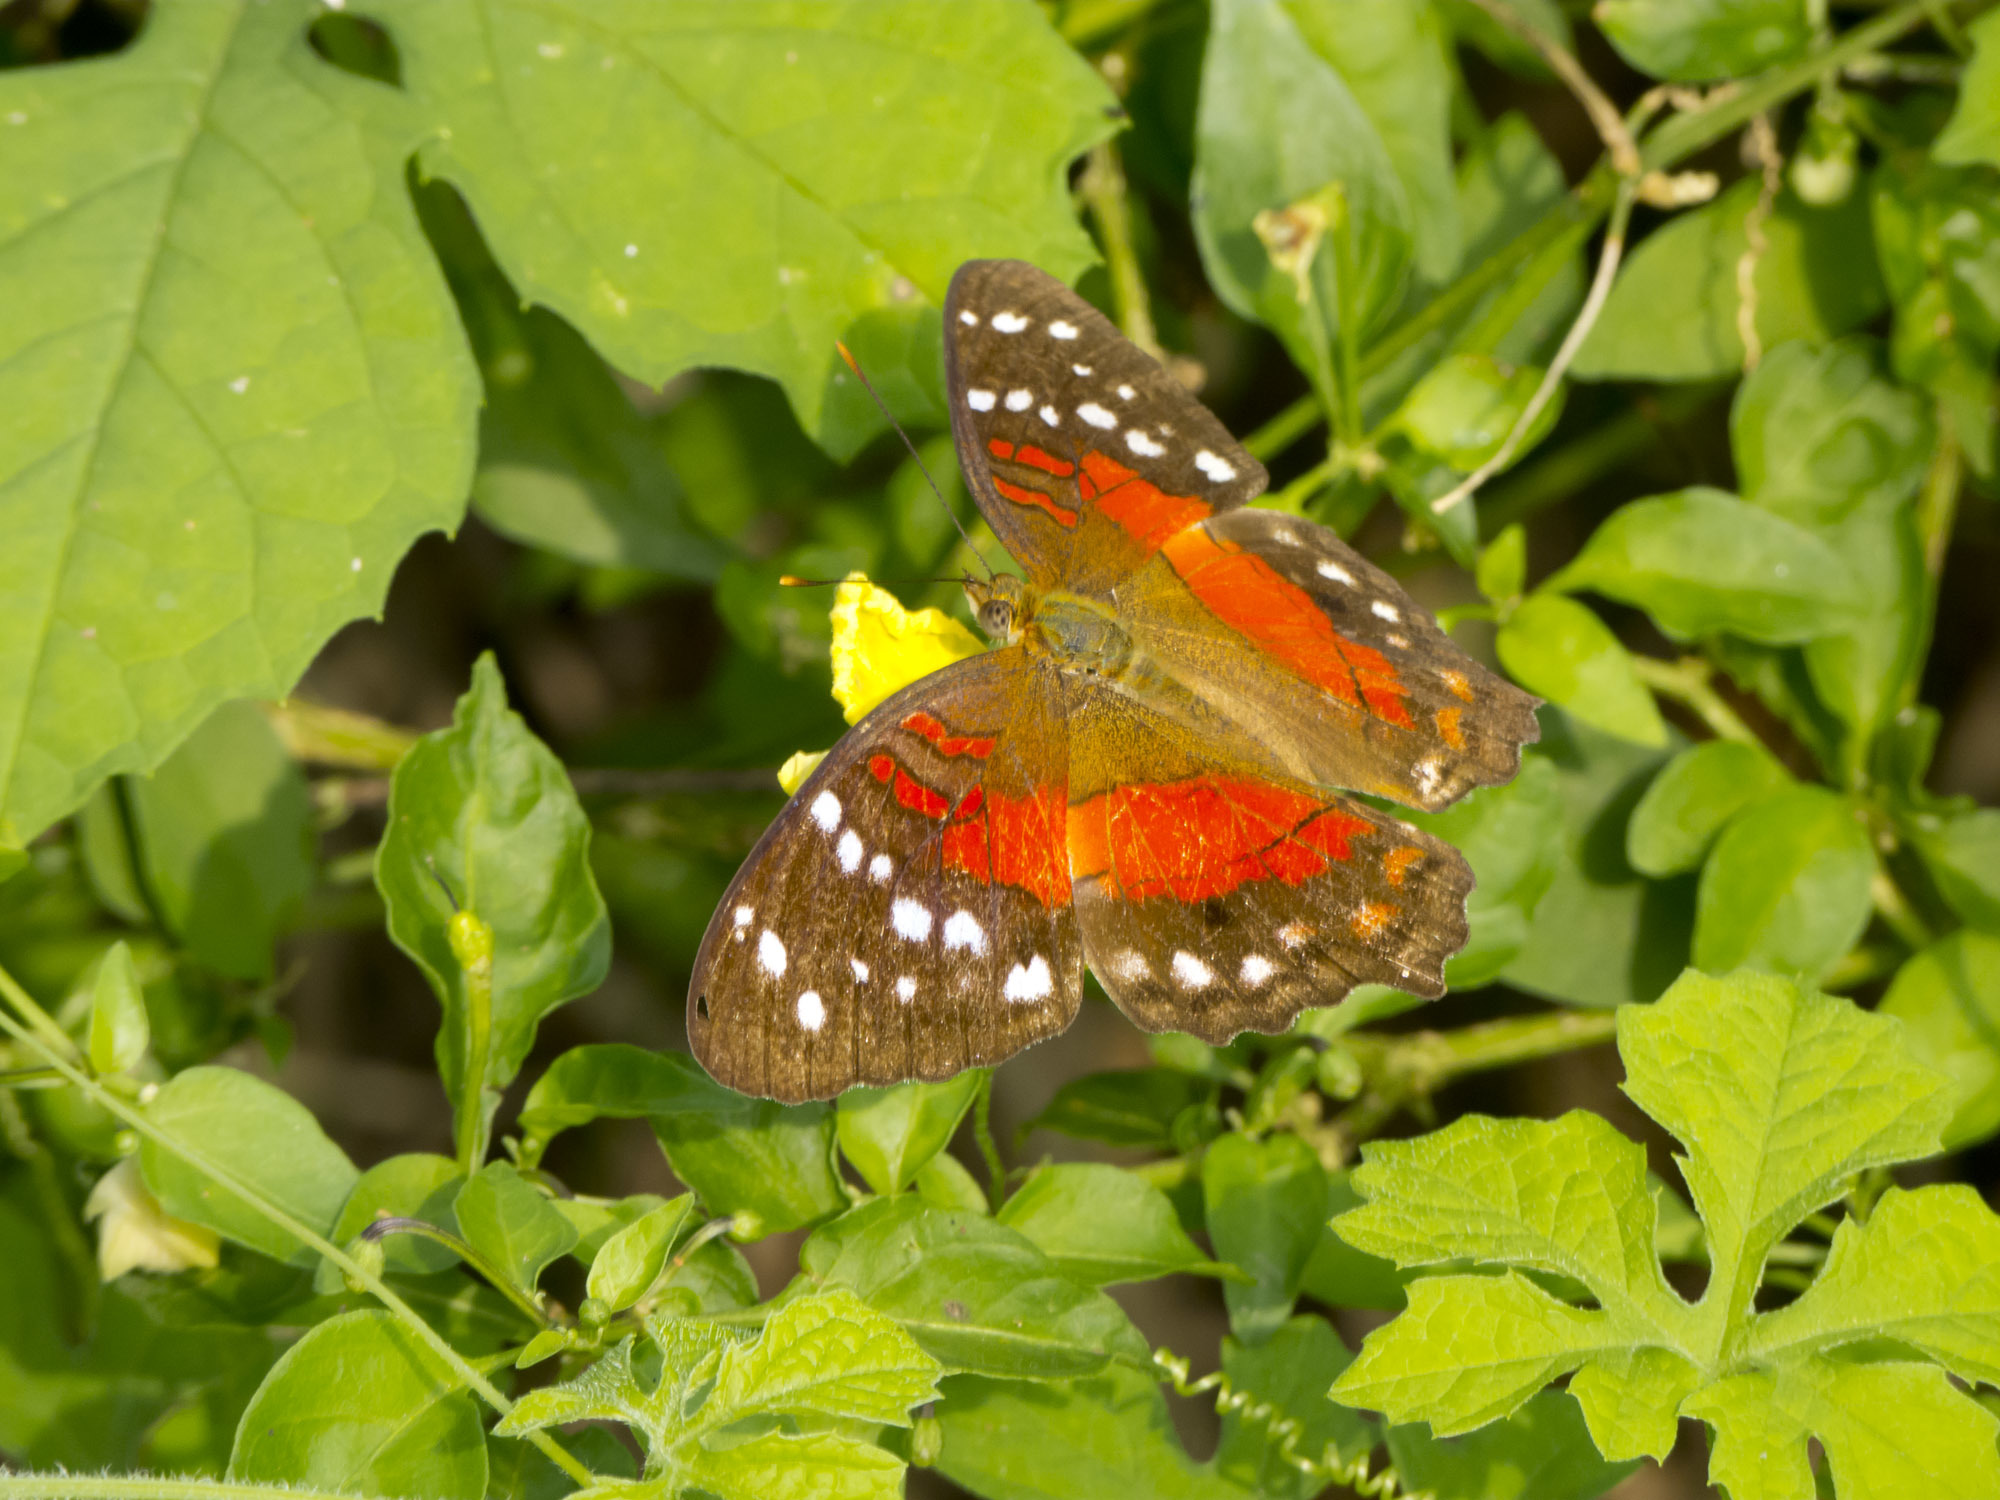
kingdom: Animalia
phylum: Arthropoda
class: Insecta
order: Lepidoptera
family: Nymphalidae
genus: Anartia
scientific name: Anartia amathea
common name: Red peacock
